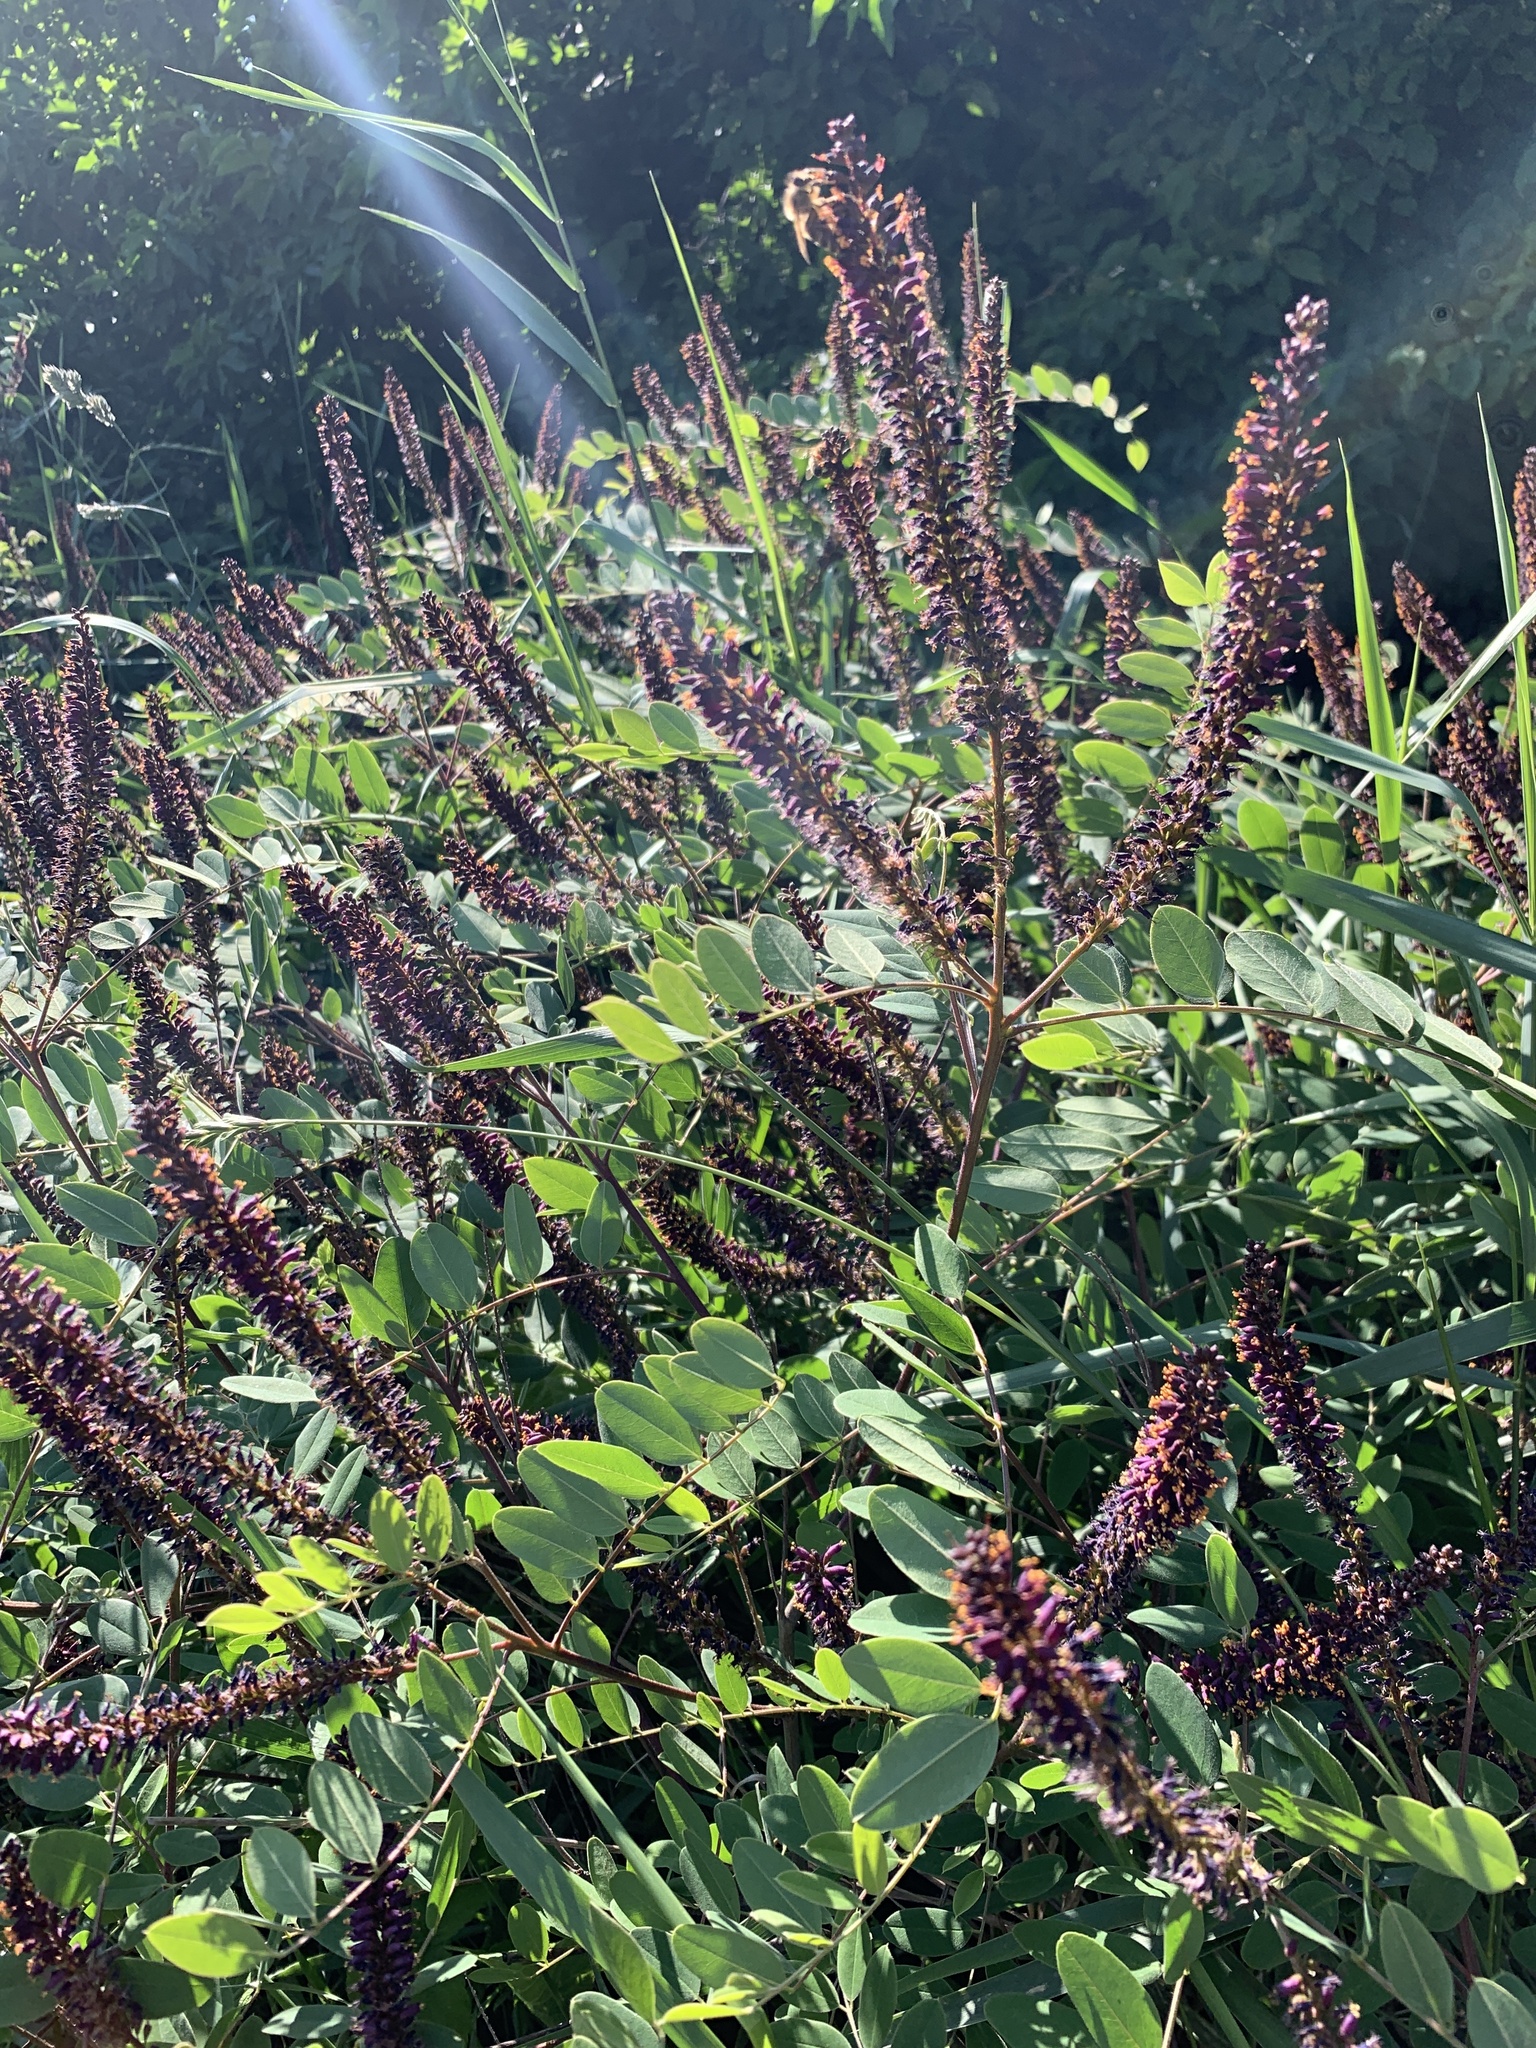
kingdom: Plantae
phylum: Tracheophyta
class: Magnoliopsida
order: Fabales
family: Fabaceae
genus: Amorpha
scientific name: Amorpha fruticosa
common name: False indigo
